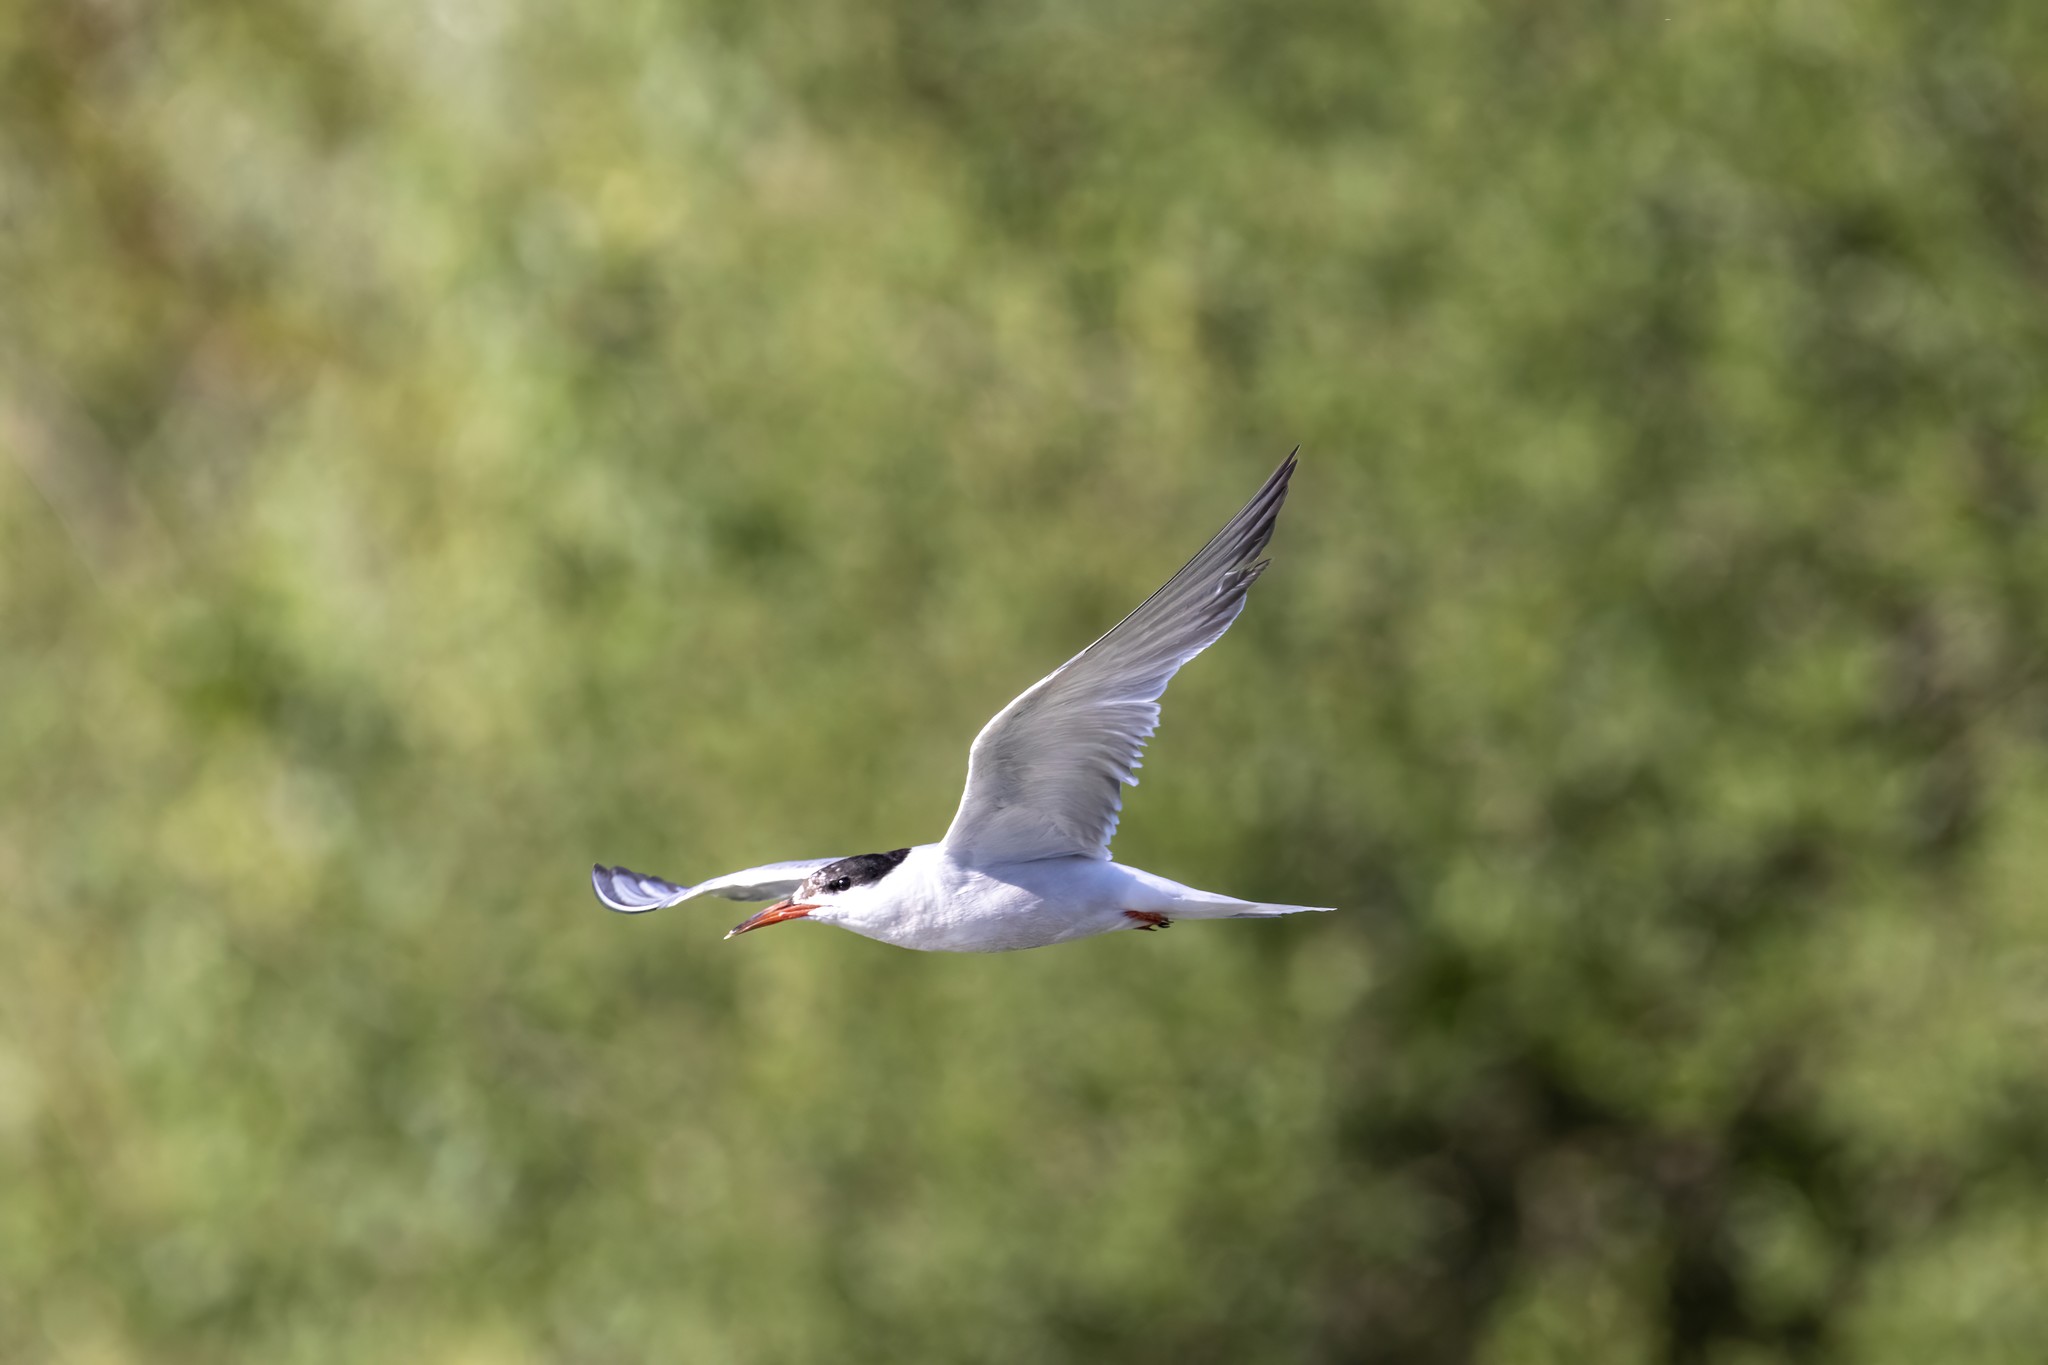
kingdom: Animalia
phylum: Chordata
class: Aves
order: Charadriiformes
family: Laridae
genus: Sterna
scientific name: Sterna hirundo
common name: Common tern
